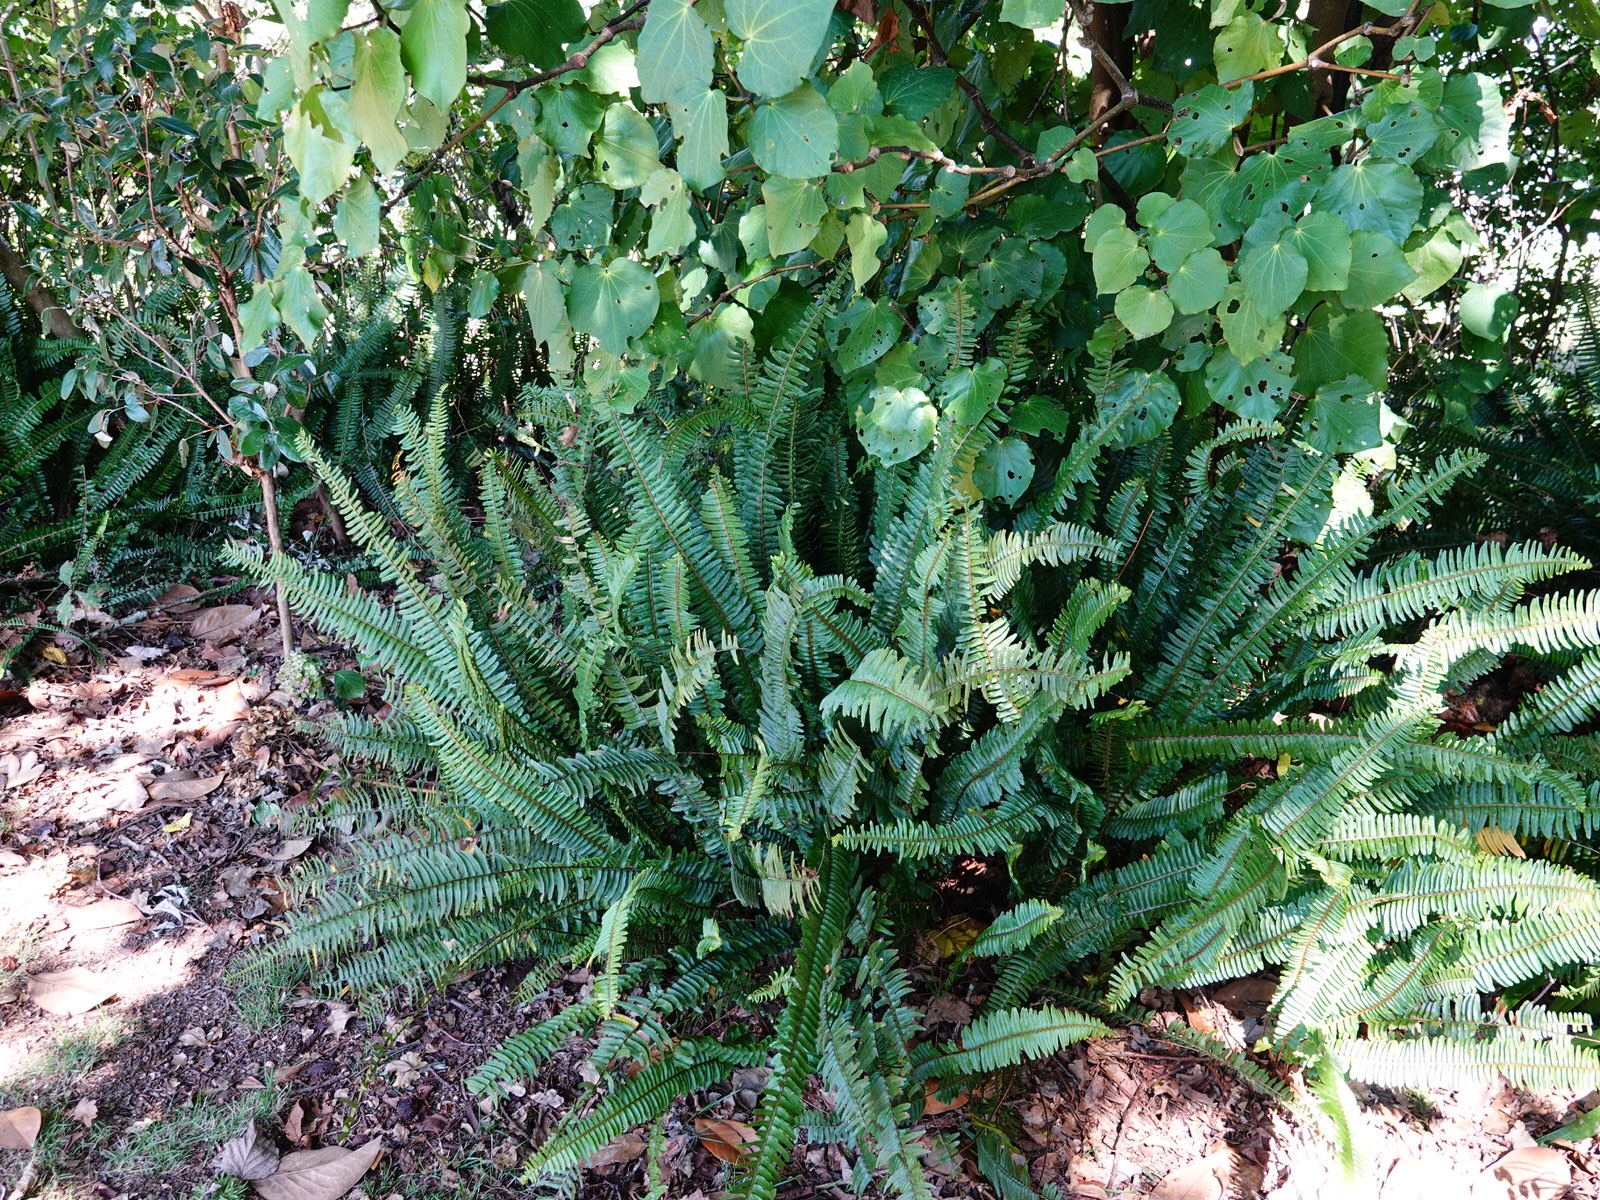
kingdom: Plantae
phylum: Tracheophyta
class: Polypodiopsida
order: Polypodiales
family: Nephrolepidaceae
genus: Nephrolepis
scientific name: Nephrolepis cordifolia
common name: Narrow swordfern
